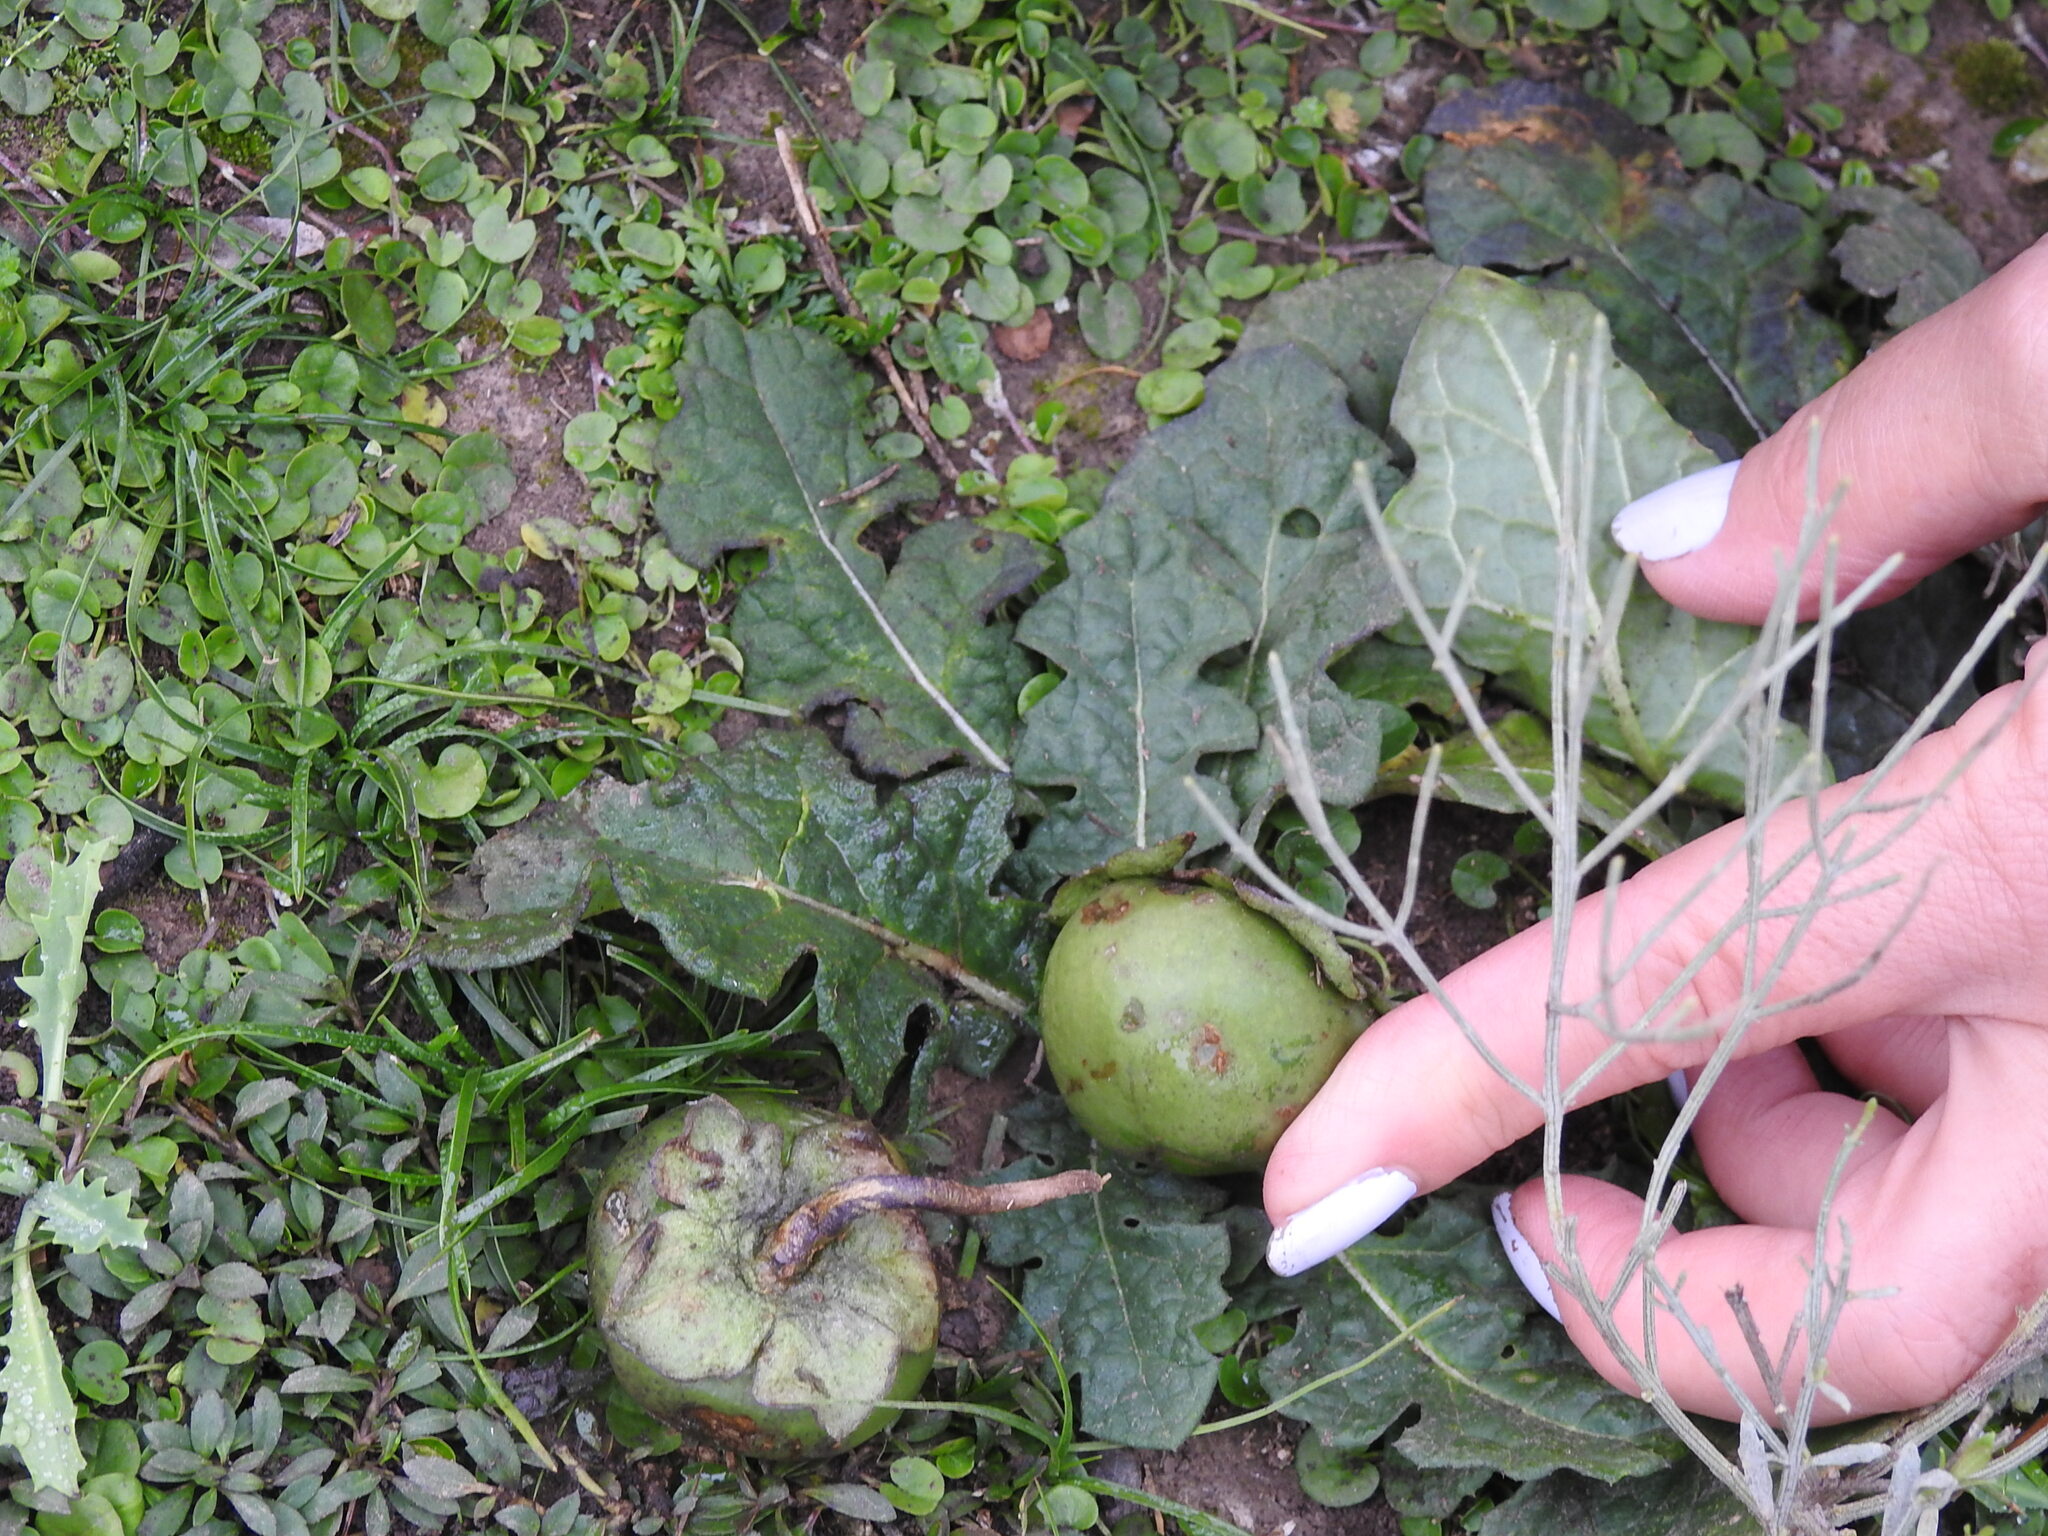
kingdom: Plantae
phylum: Tracheophyta
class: Magnoliopsida
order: Solanales
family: Solanaceae
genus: Jaborosa
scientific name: Jaborosa runcinata
